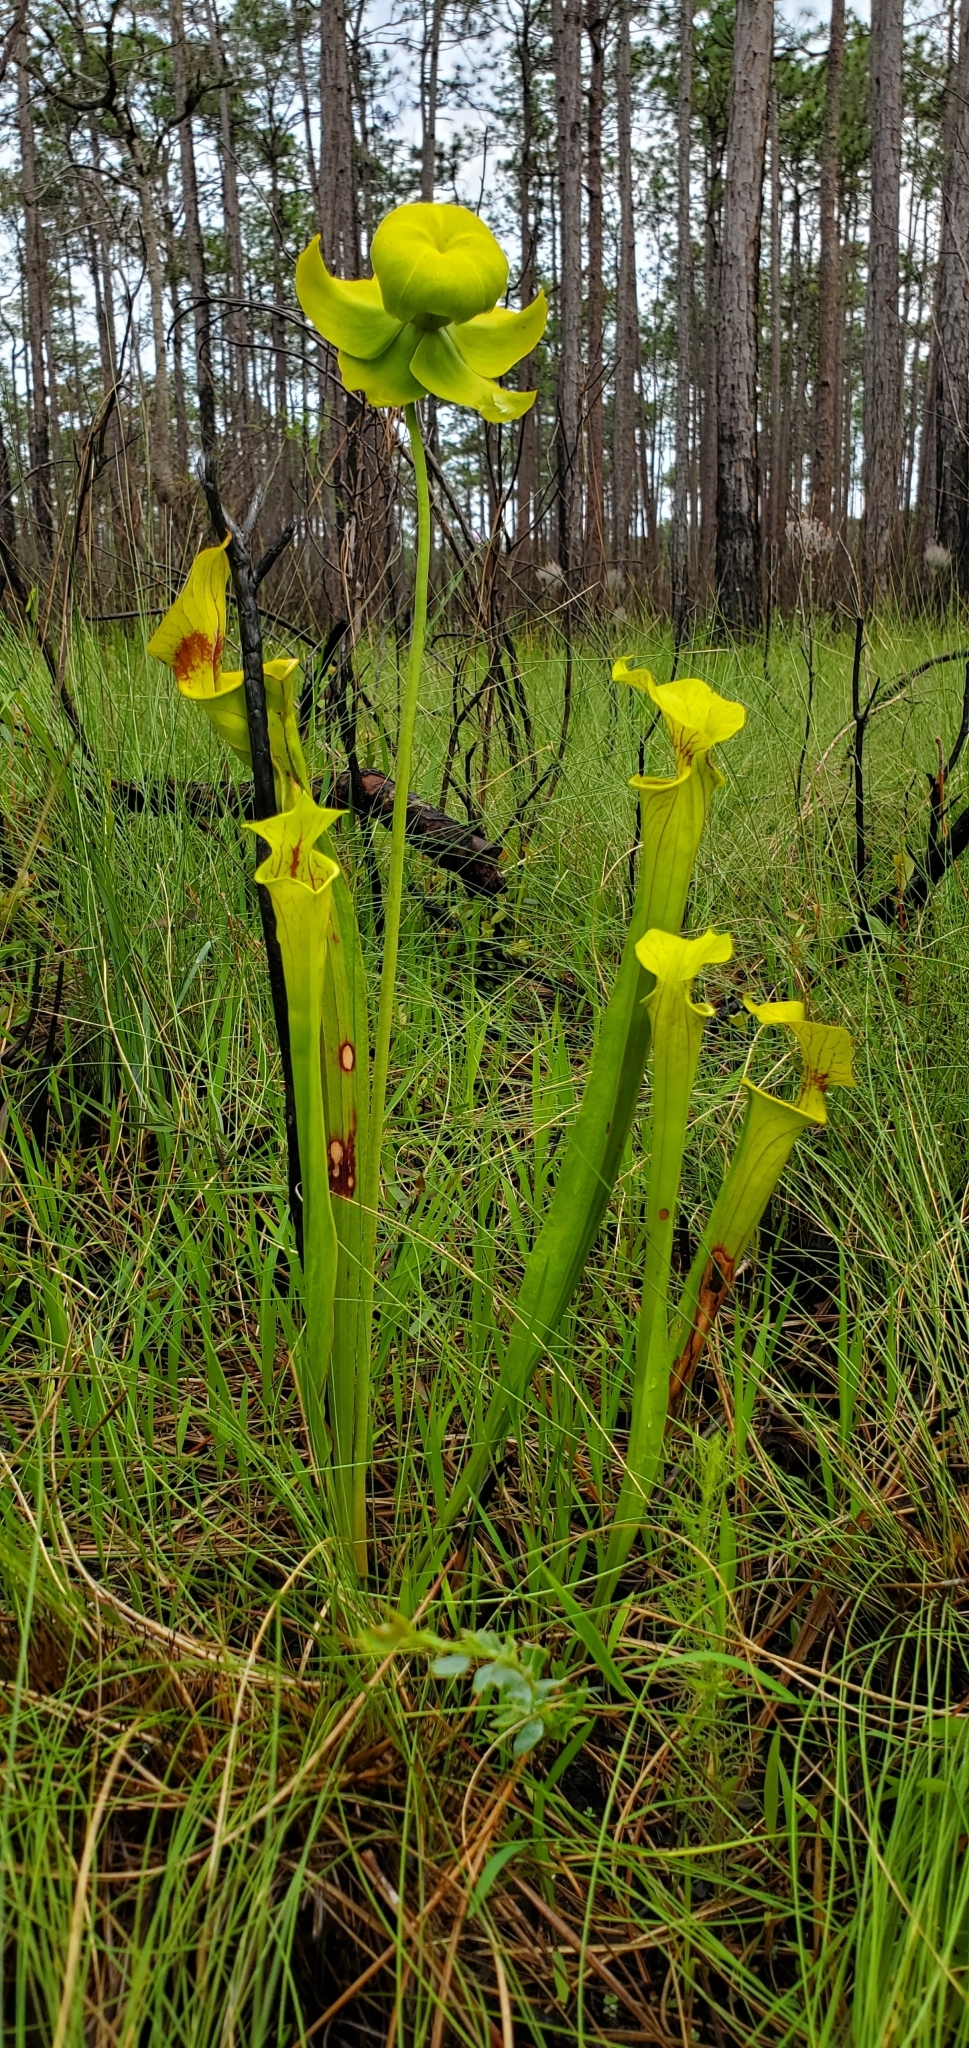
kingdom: Plantae
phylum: Tracheophyta
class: Magnoliopsida
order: Ericales
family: Sarraceniaceae
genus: Sarracenia
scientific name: Sarracenia flava
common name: Trumpets
